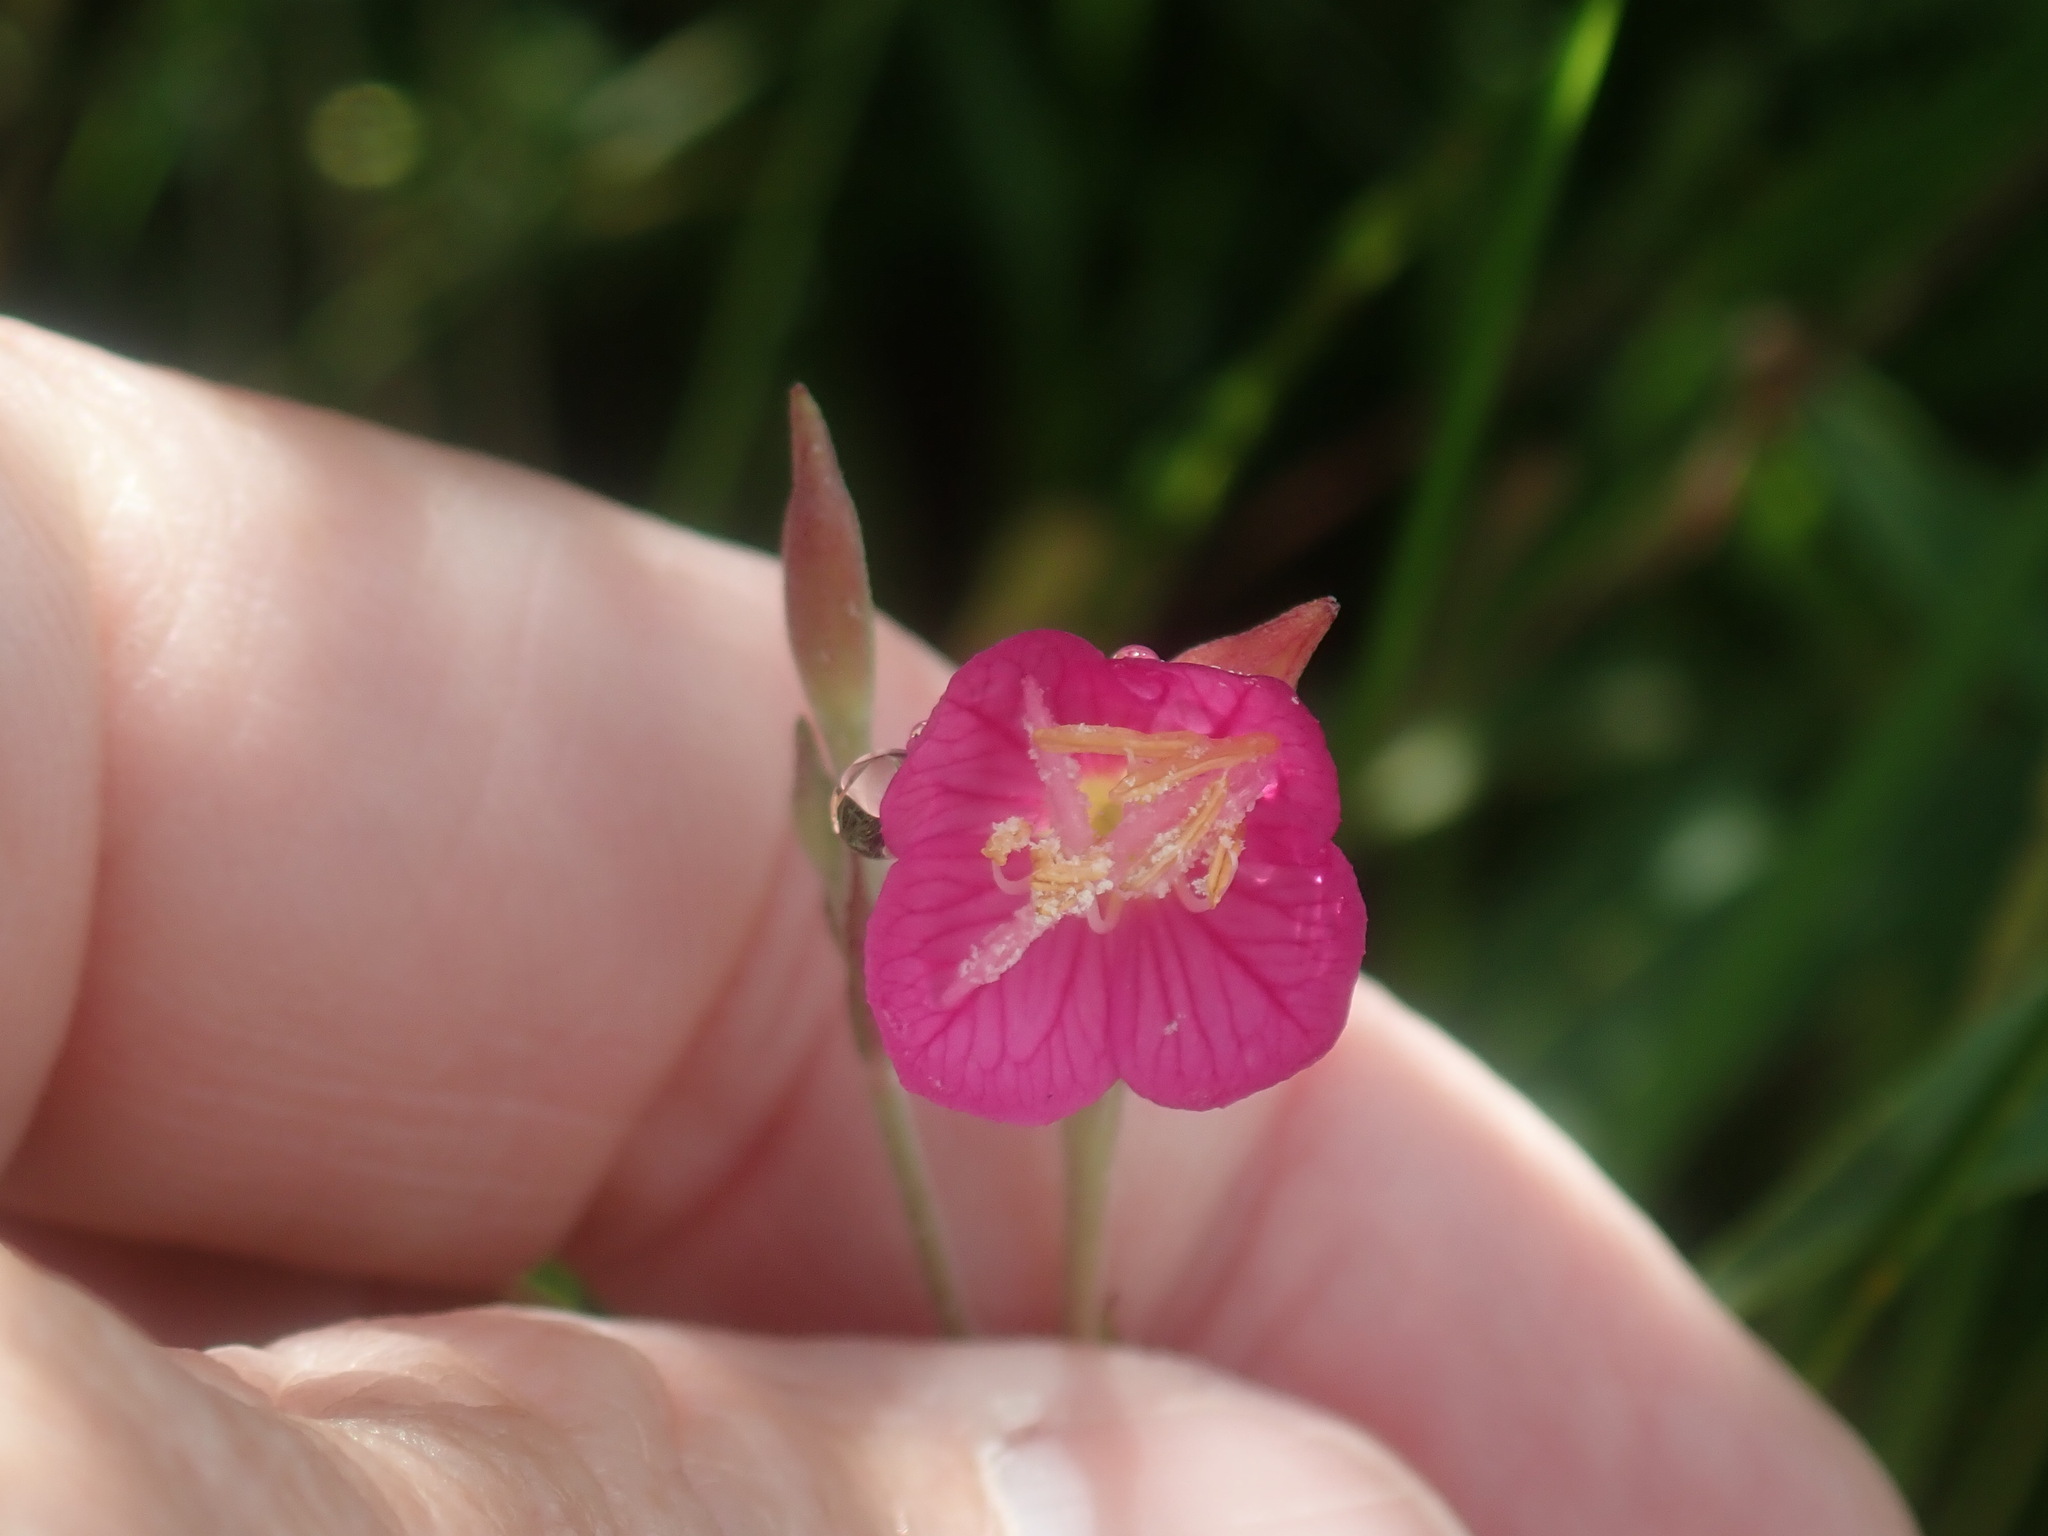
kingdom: Plantae
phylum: Tracheophyta
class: Magnoliopsida
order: Myrtales
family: Onagraceae
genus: Oenothera
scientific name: Oenothera rosea
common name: Rosy evening-primrose
